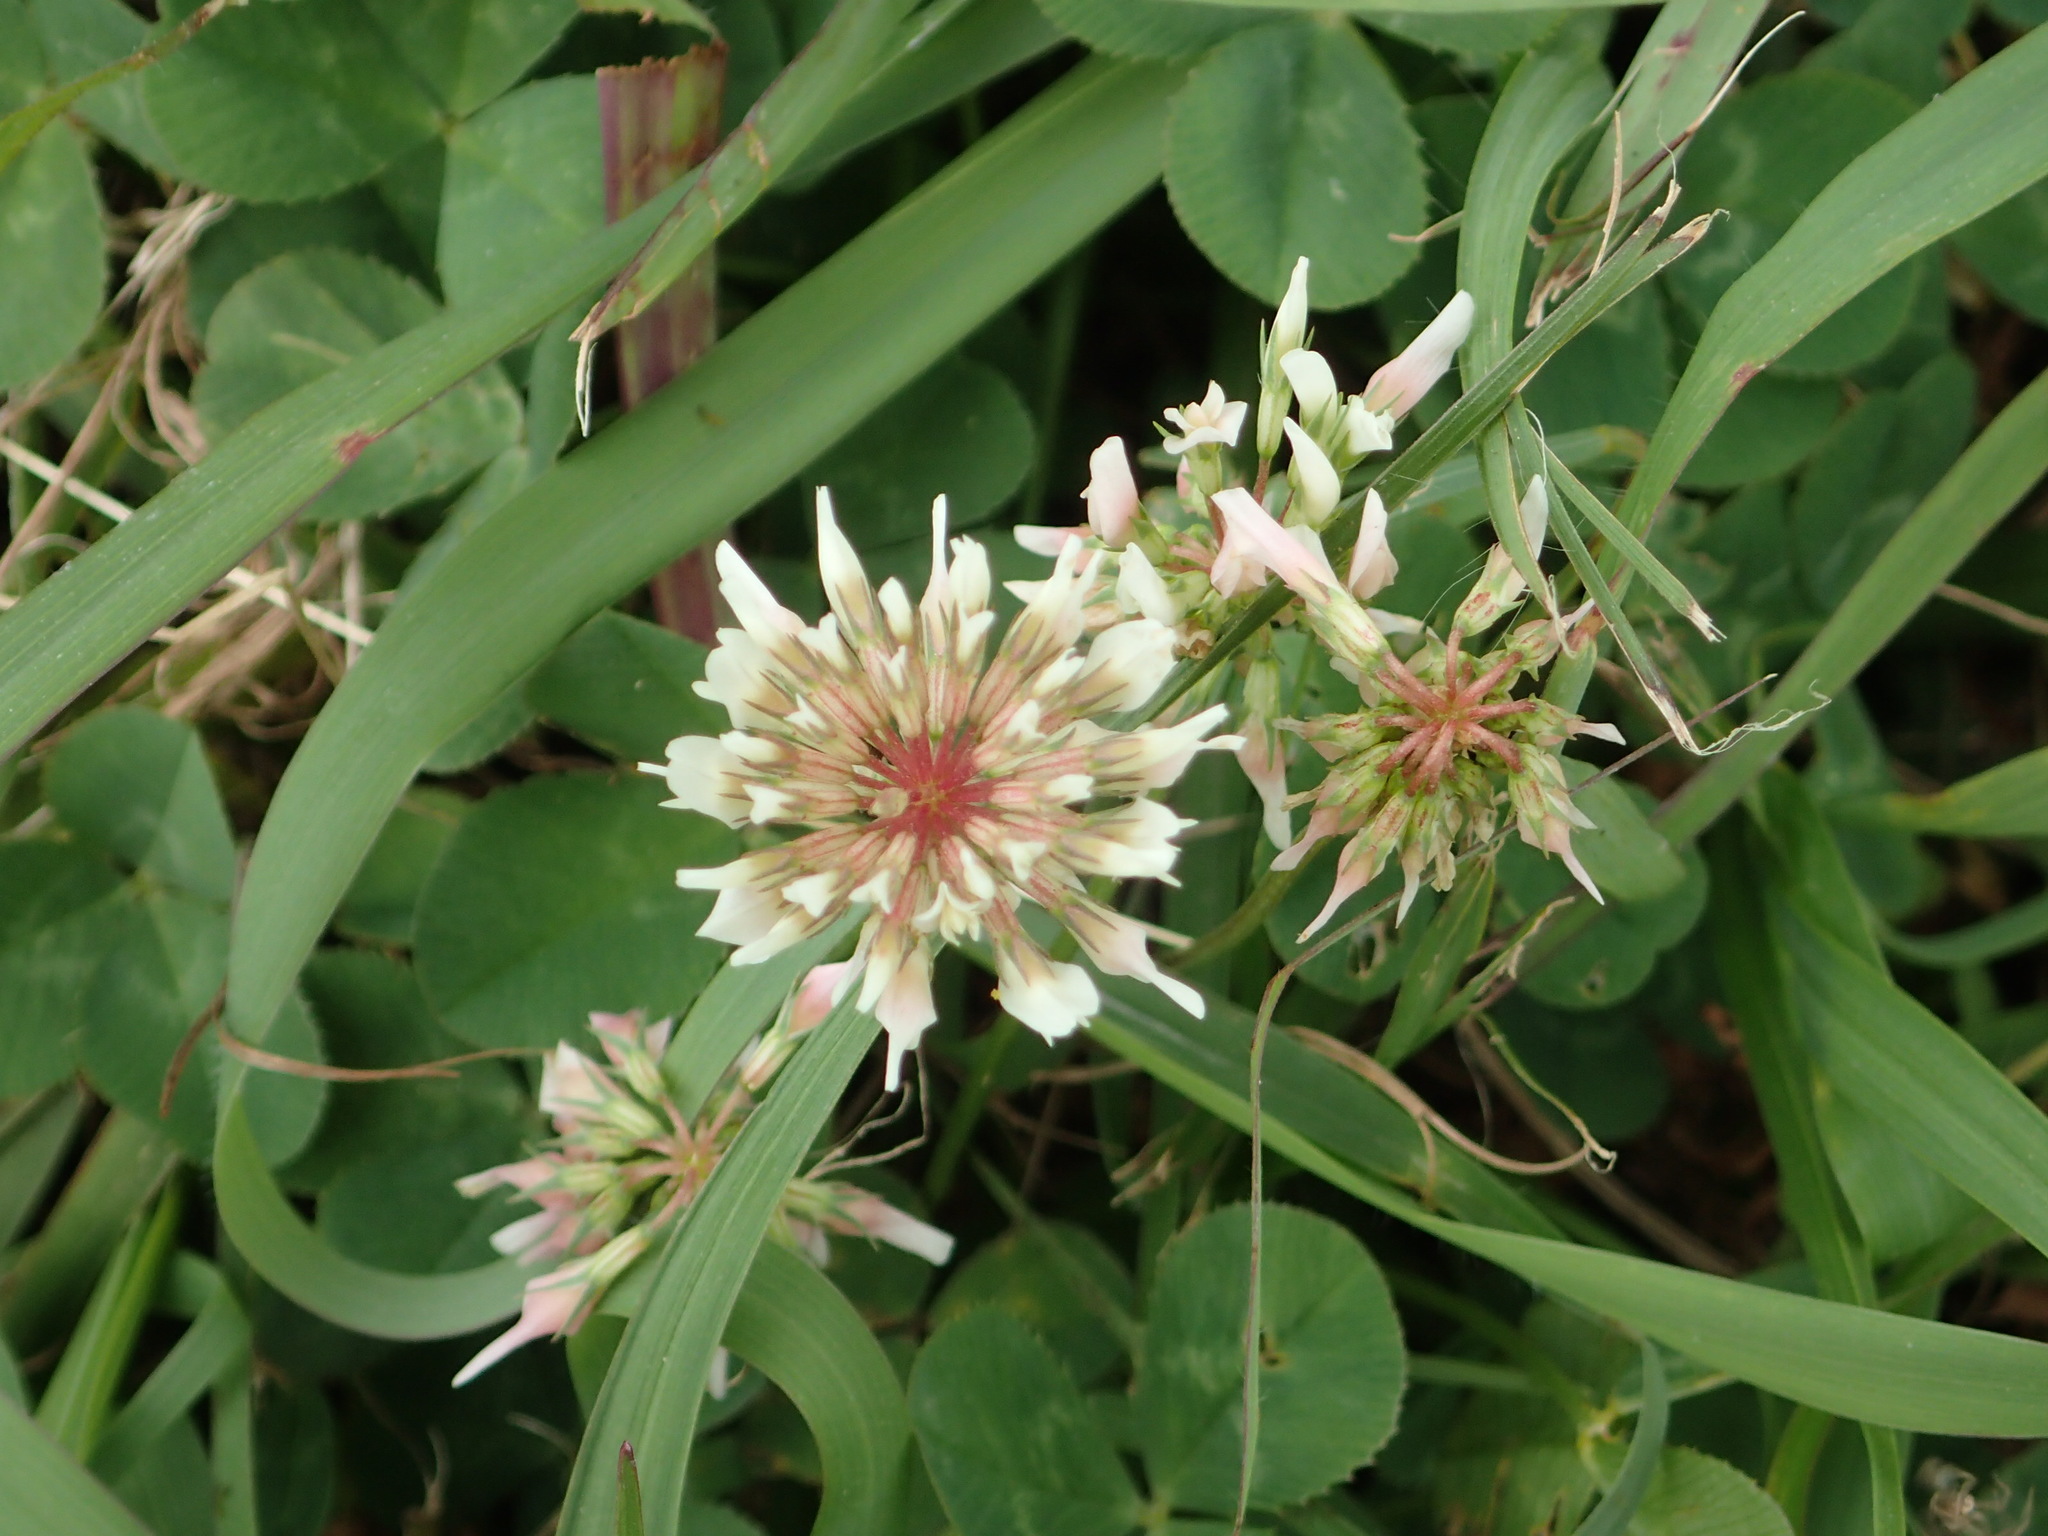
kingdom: Plantae
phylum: Tracheophyta
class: Magnoliopsida
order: Fabales
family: Fabaceae
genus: Trifolium
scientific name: Trifolium repens
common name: White clover
